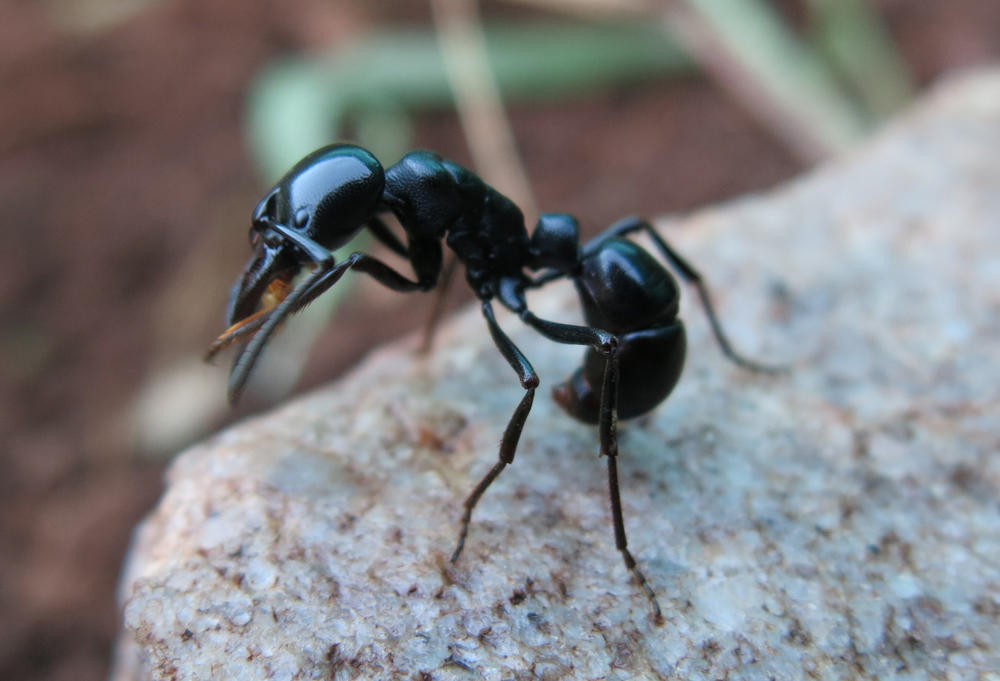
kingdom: Animalia
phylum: Arthropoda
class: Insecta
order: Hymenoptera
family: Formicidae
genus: Plectroctena
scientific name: Plectroctena mandibularis
